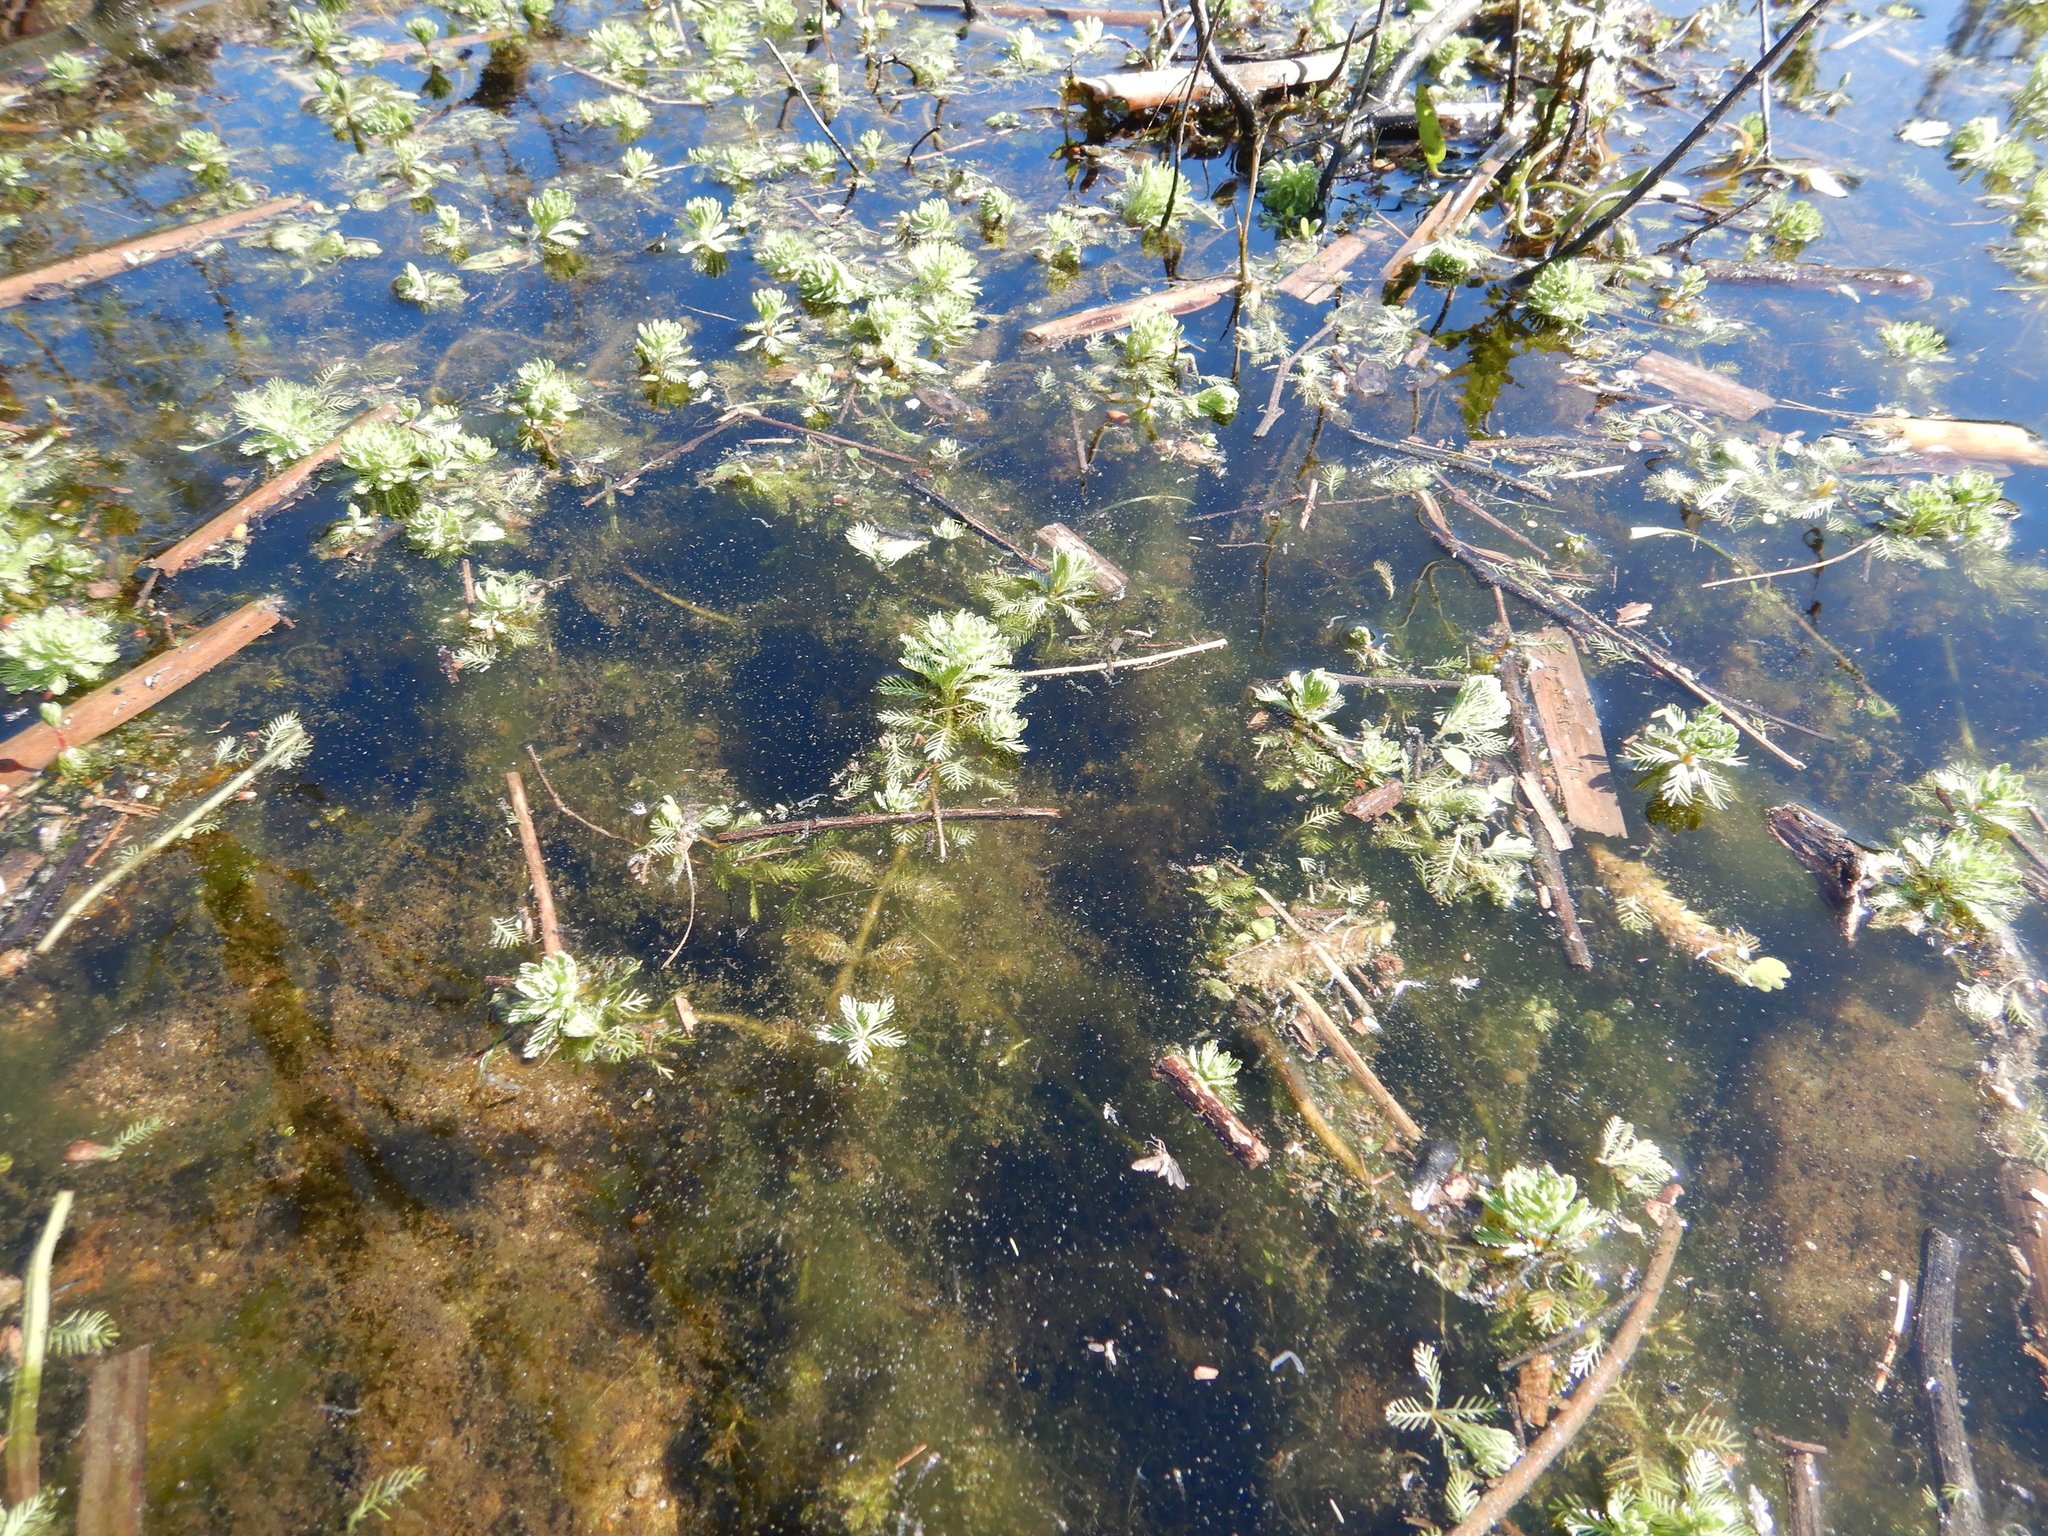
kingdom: Plantae
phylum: Tracheophyta
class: Magnoliopsida
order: Saxifragales
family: Haloragaceae
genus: Myriophyllum
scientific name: Myriophyllum aquaticum
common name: Parrot's feather
